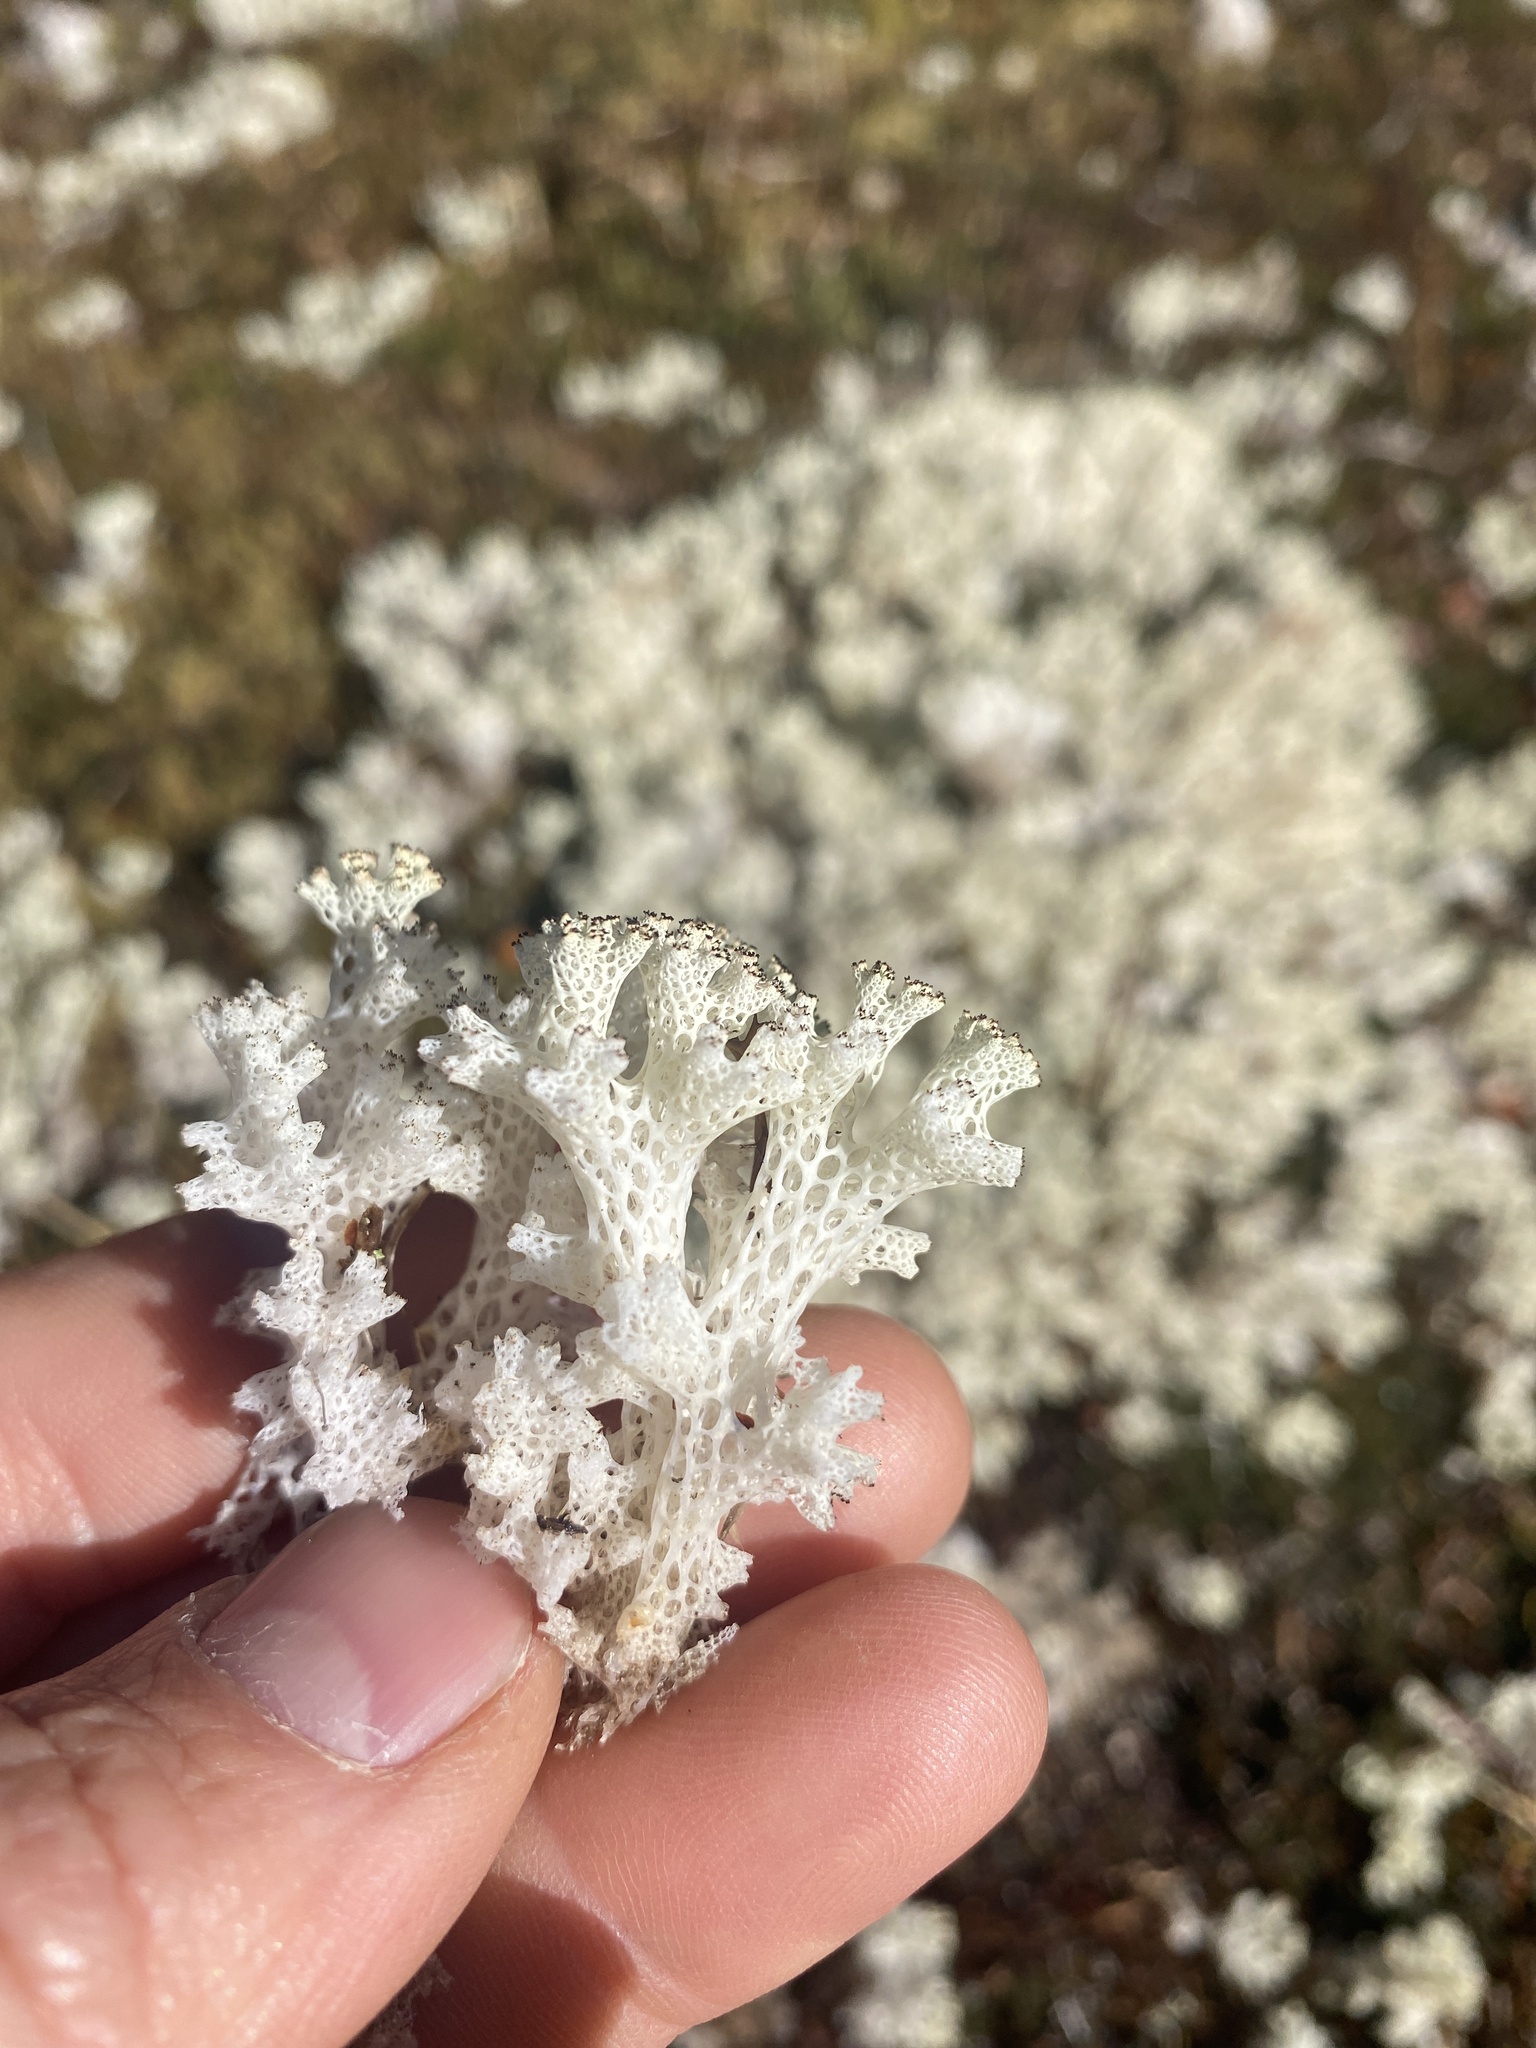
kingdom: Fungi
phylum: Ascomycota
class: Lecanoromycetes
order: Lecanorales
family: Cladoniaceae
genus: Pulchrocladia
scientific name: Pulchrocladia retipora
